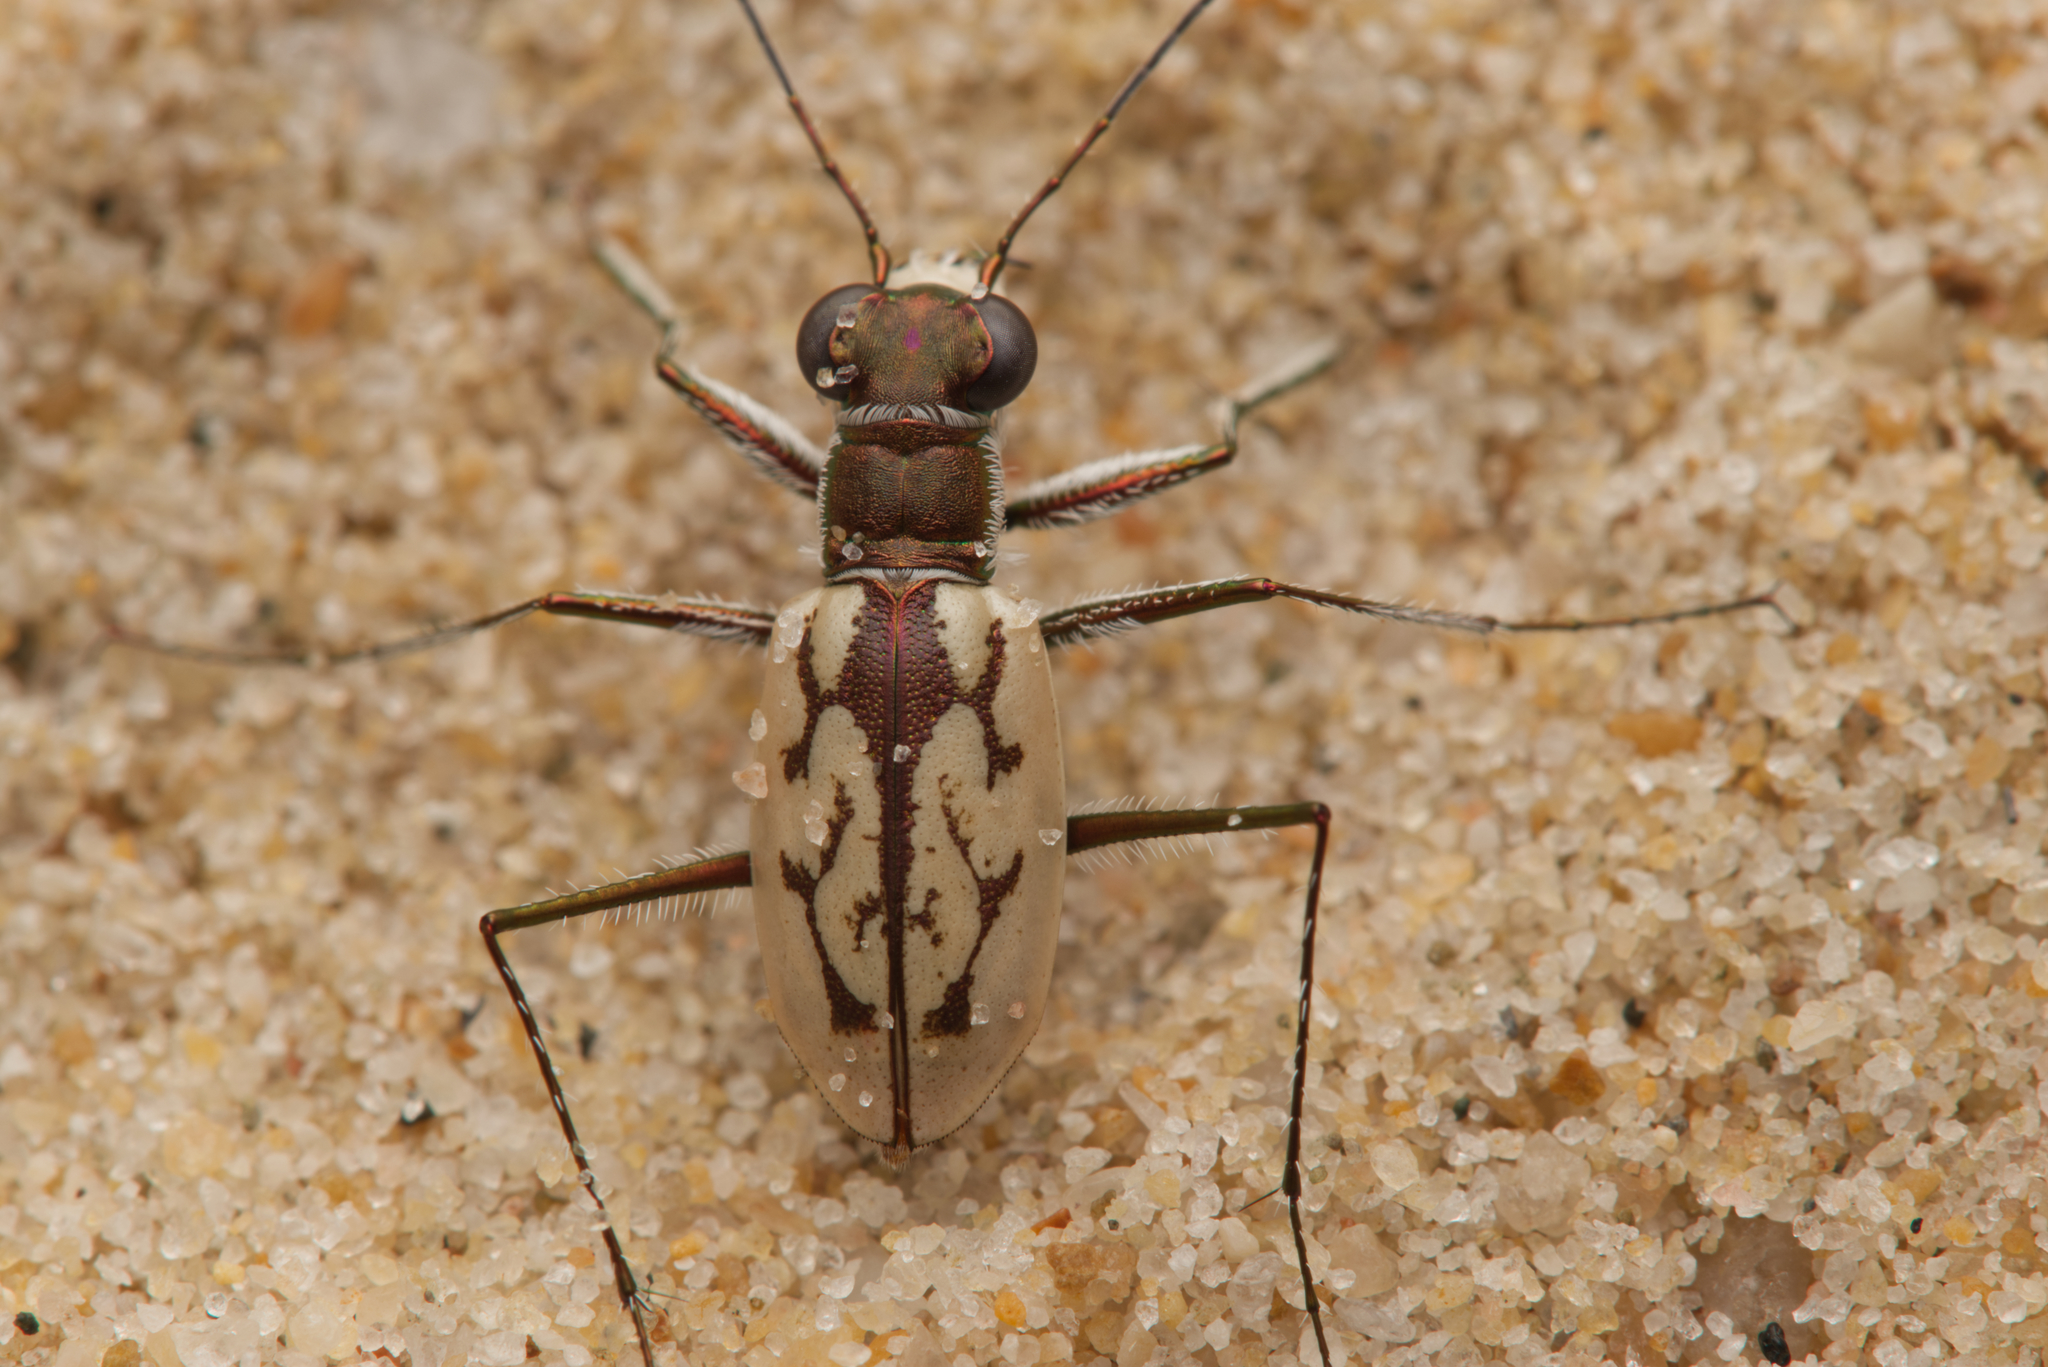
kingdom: Animalia
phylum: Arthropoda
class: Insecta
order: Coleoptera
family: Carabidae
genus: Hypaetha
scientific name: Hypaetha upsilon
